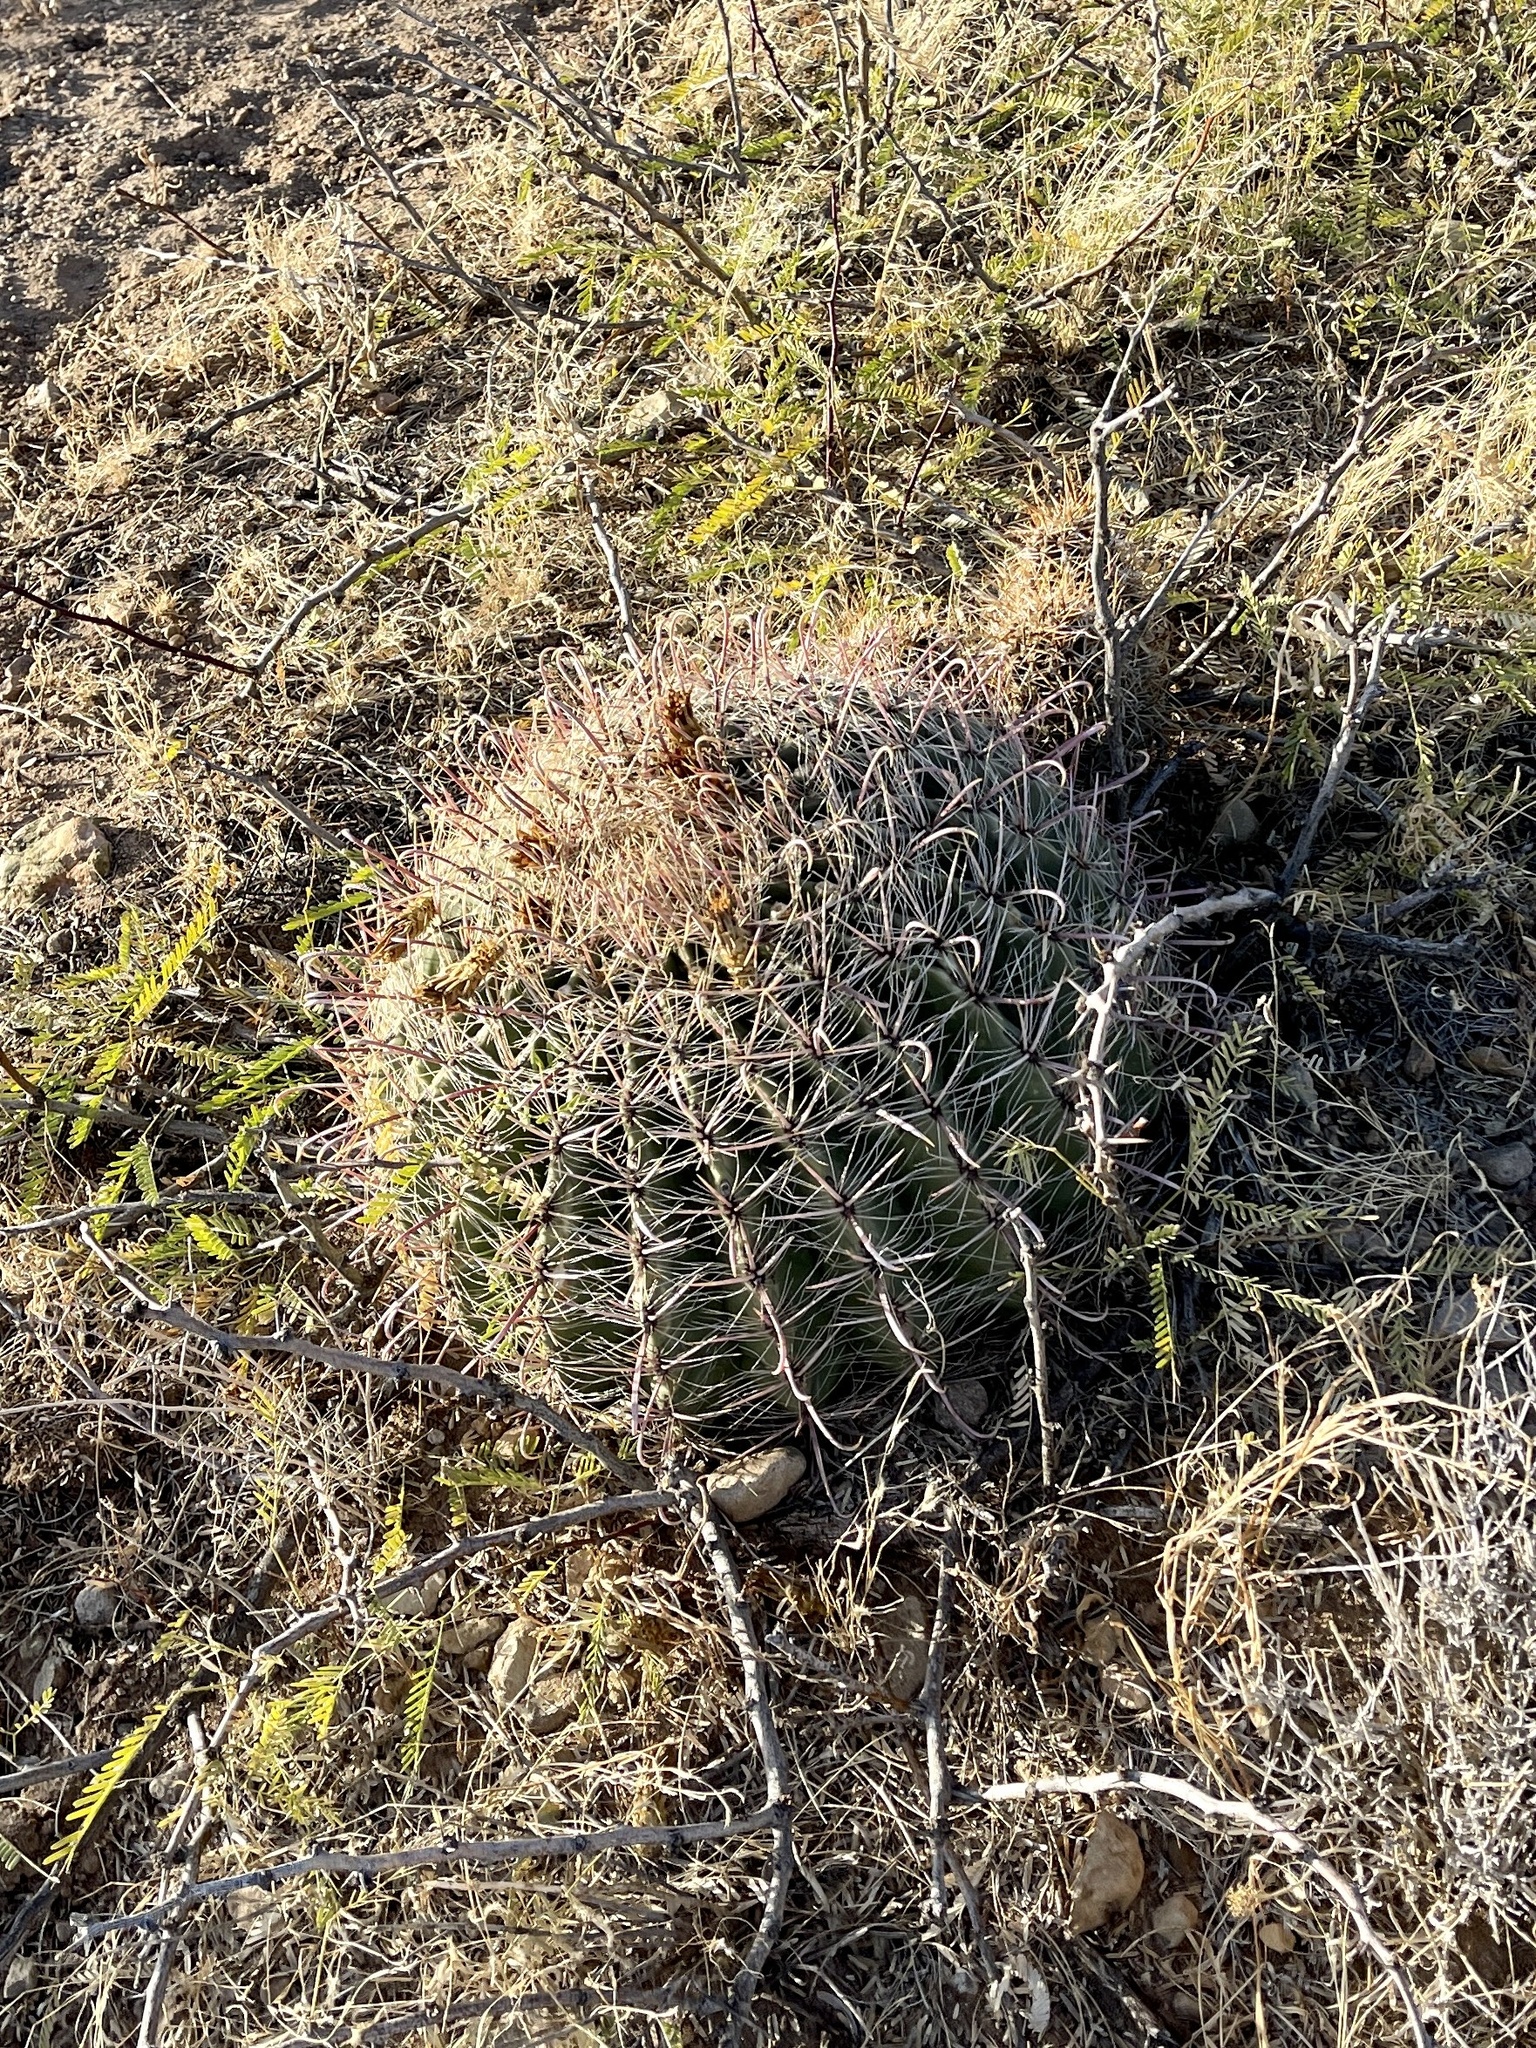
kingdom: Plantae
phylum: Tracheophyta
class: Magnoliopsida
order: Caryophyllales
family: Cactaceae
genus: Ferocactus
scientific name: Ferocactus wislizeni
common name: Candy barrel cactus
